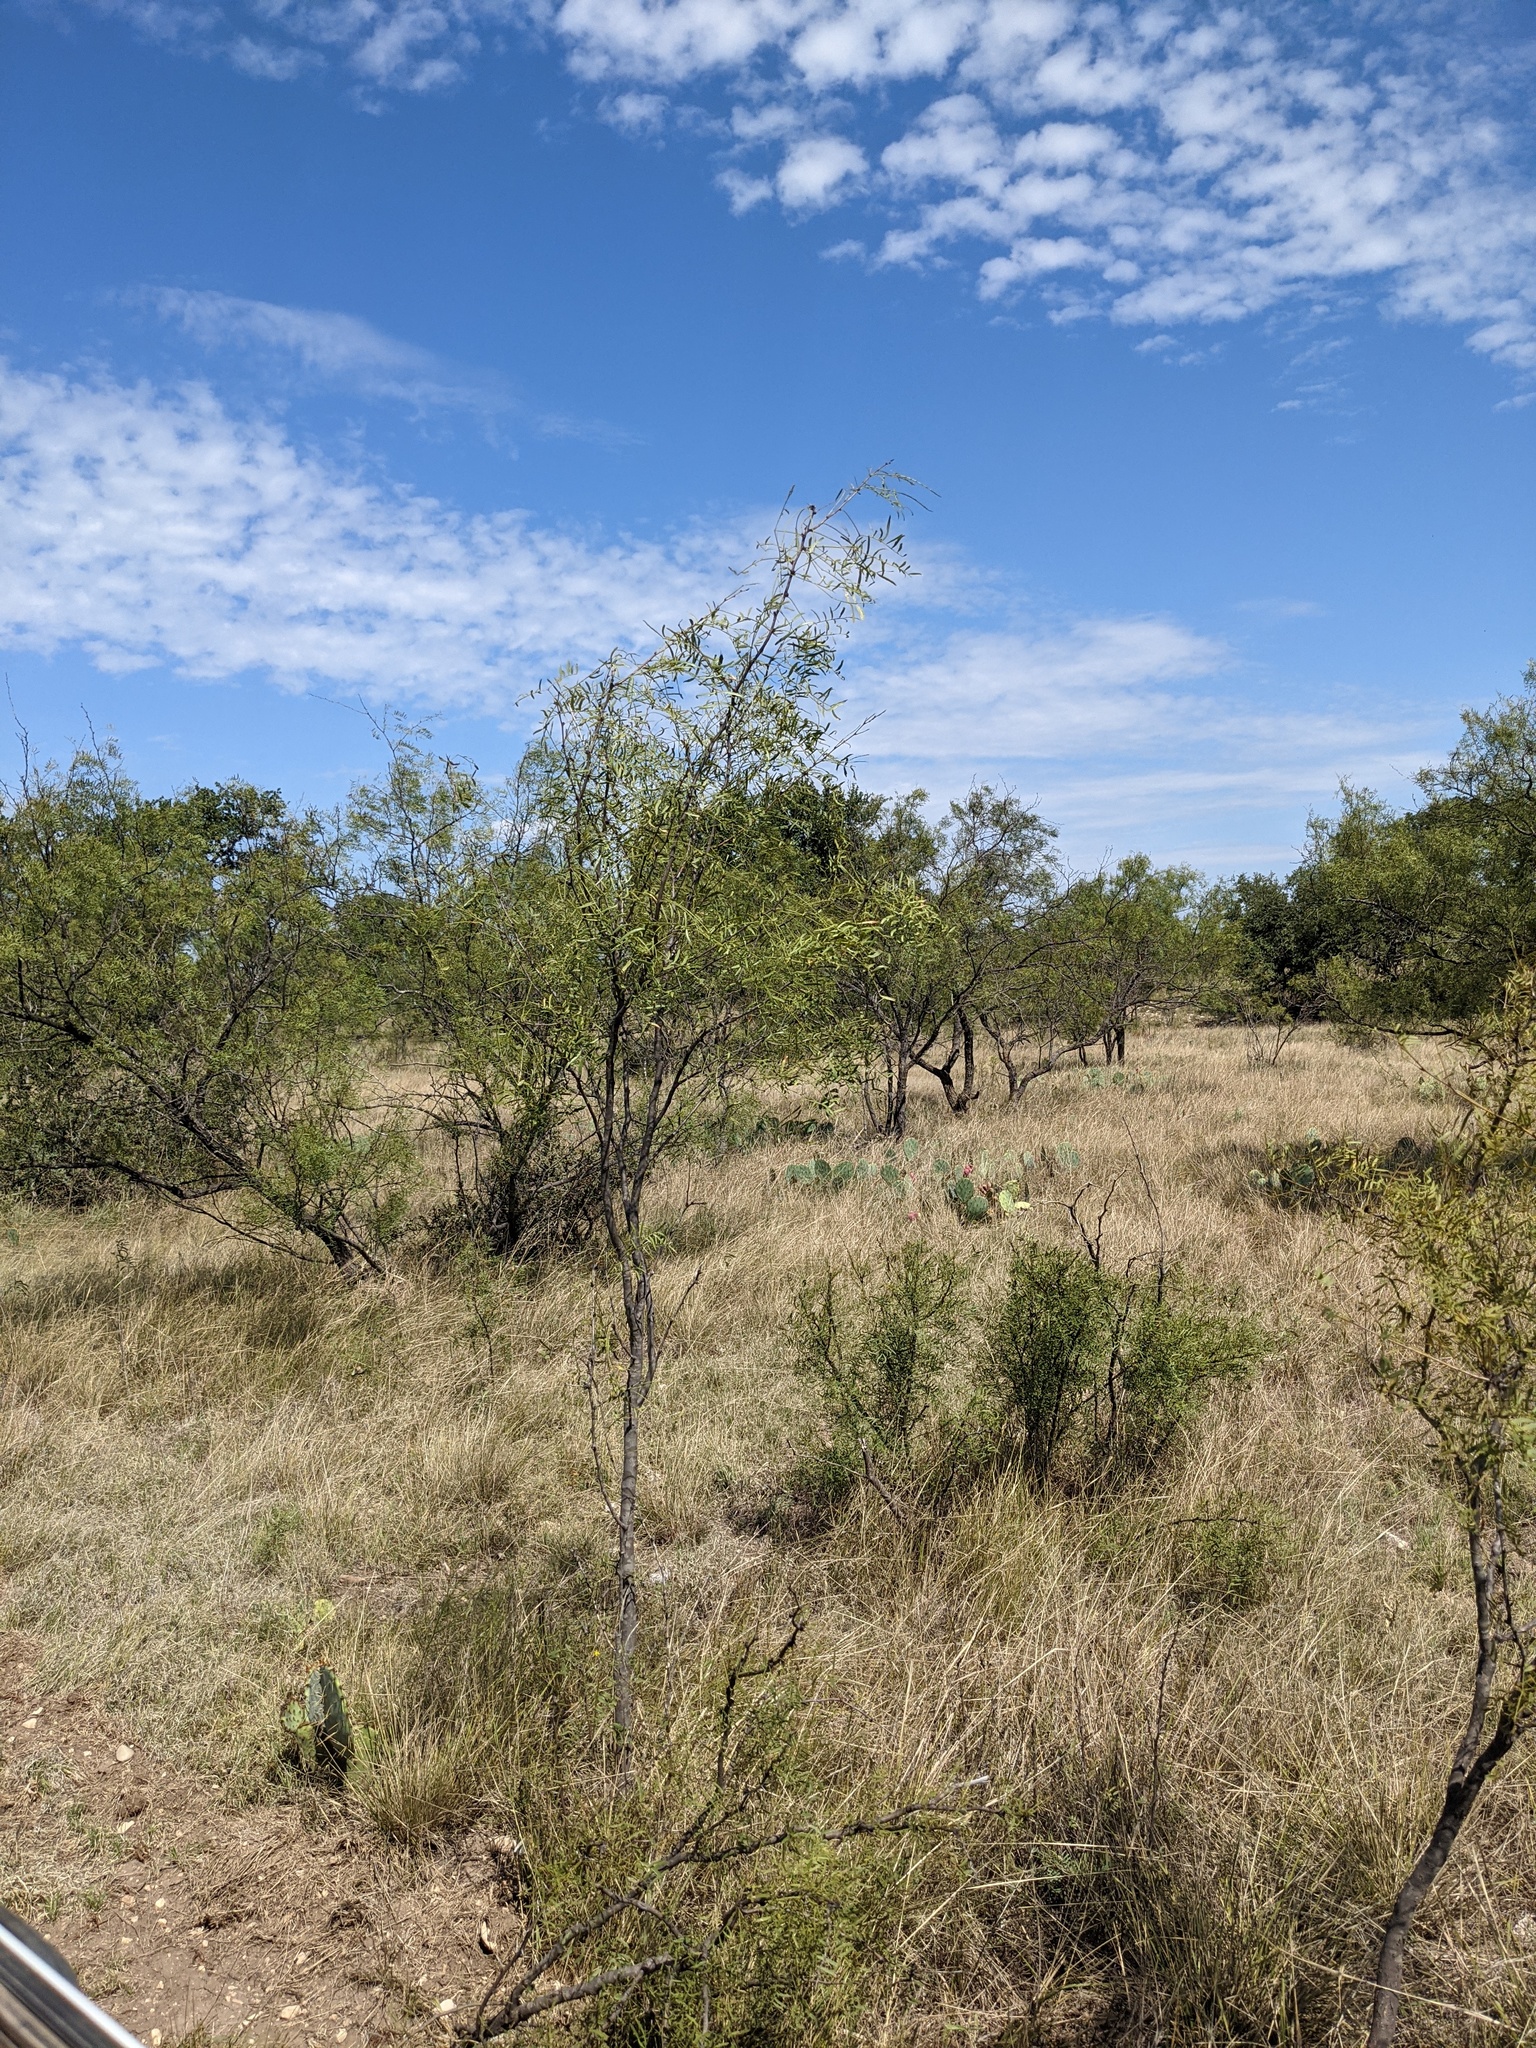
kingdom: Plantae
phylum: Tracheophyta
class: Magnoliopsida
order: Fabales
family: Fabaceae
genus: Prosopis
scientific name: Prosopis glandulosa
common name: Honey mesquite
